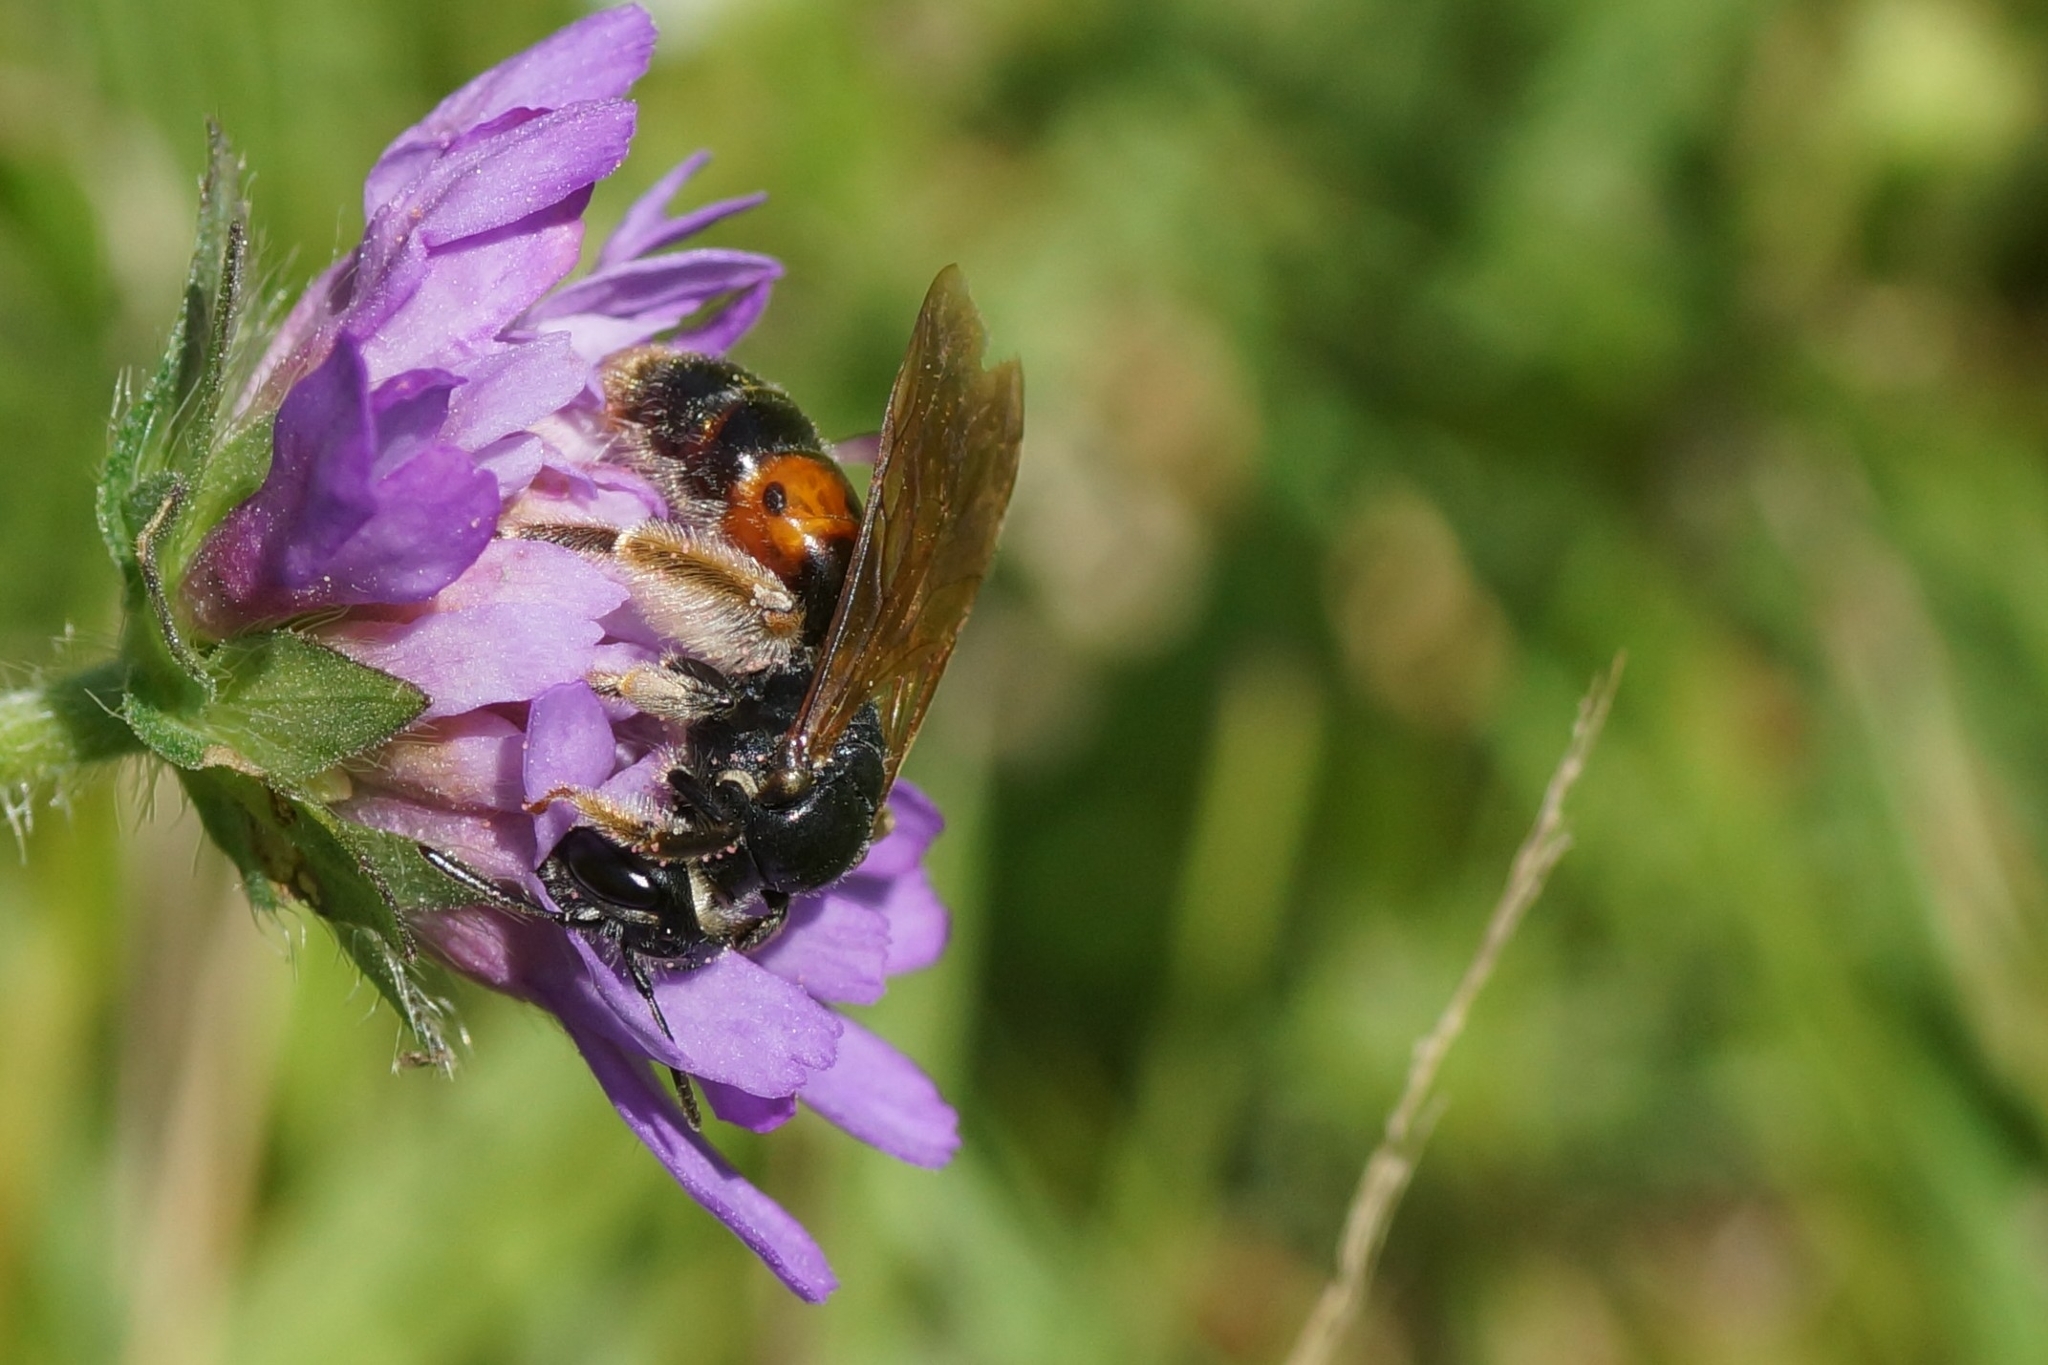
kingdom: Animalia
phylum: Arthropoda
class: Insecta
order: Hymenoptera
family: Andrenidae
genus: Andrena
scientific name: Andrena hattorfiana
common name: Large scabious mining bee
